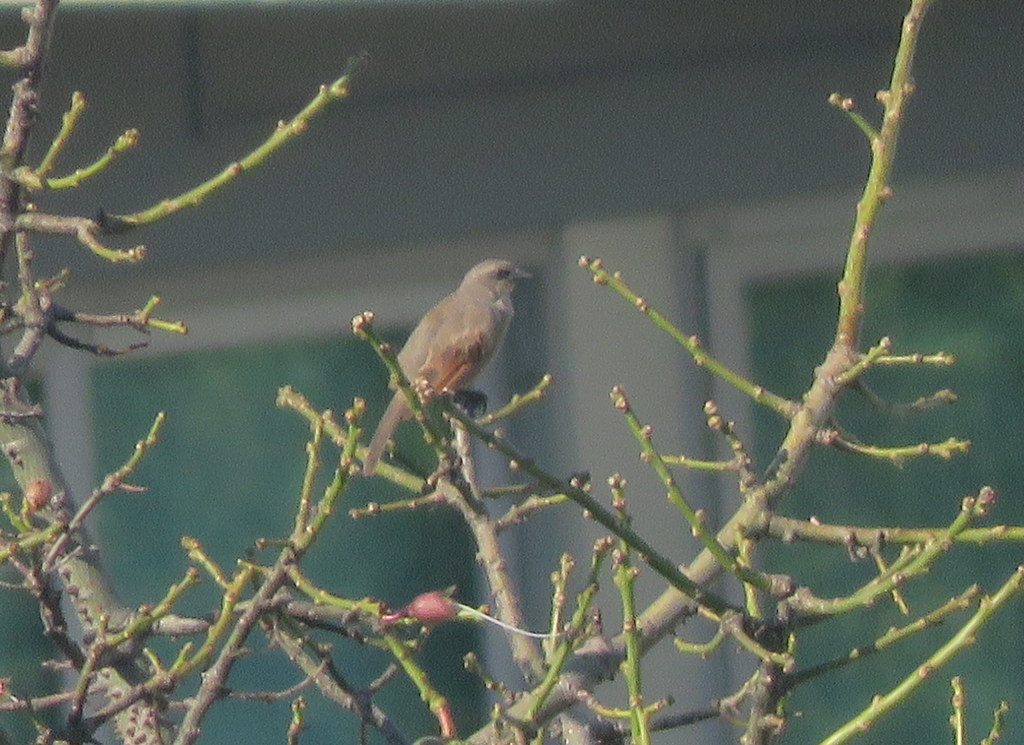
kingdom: Animalia
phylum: Chordata
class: Aves
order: Passeriformes
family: Icteridae
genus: Agelaioides
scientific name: Agelaioides badius
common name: Baywing
